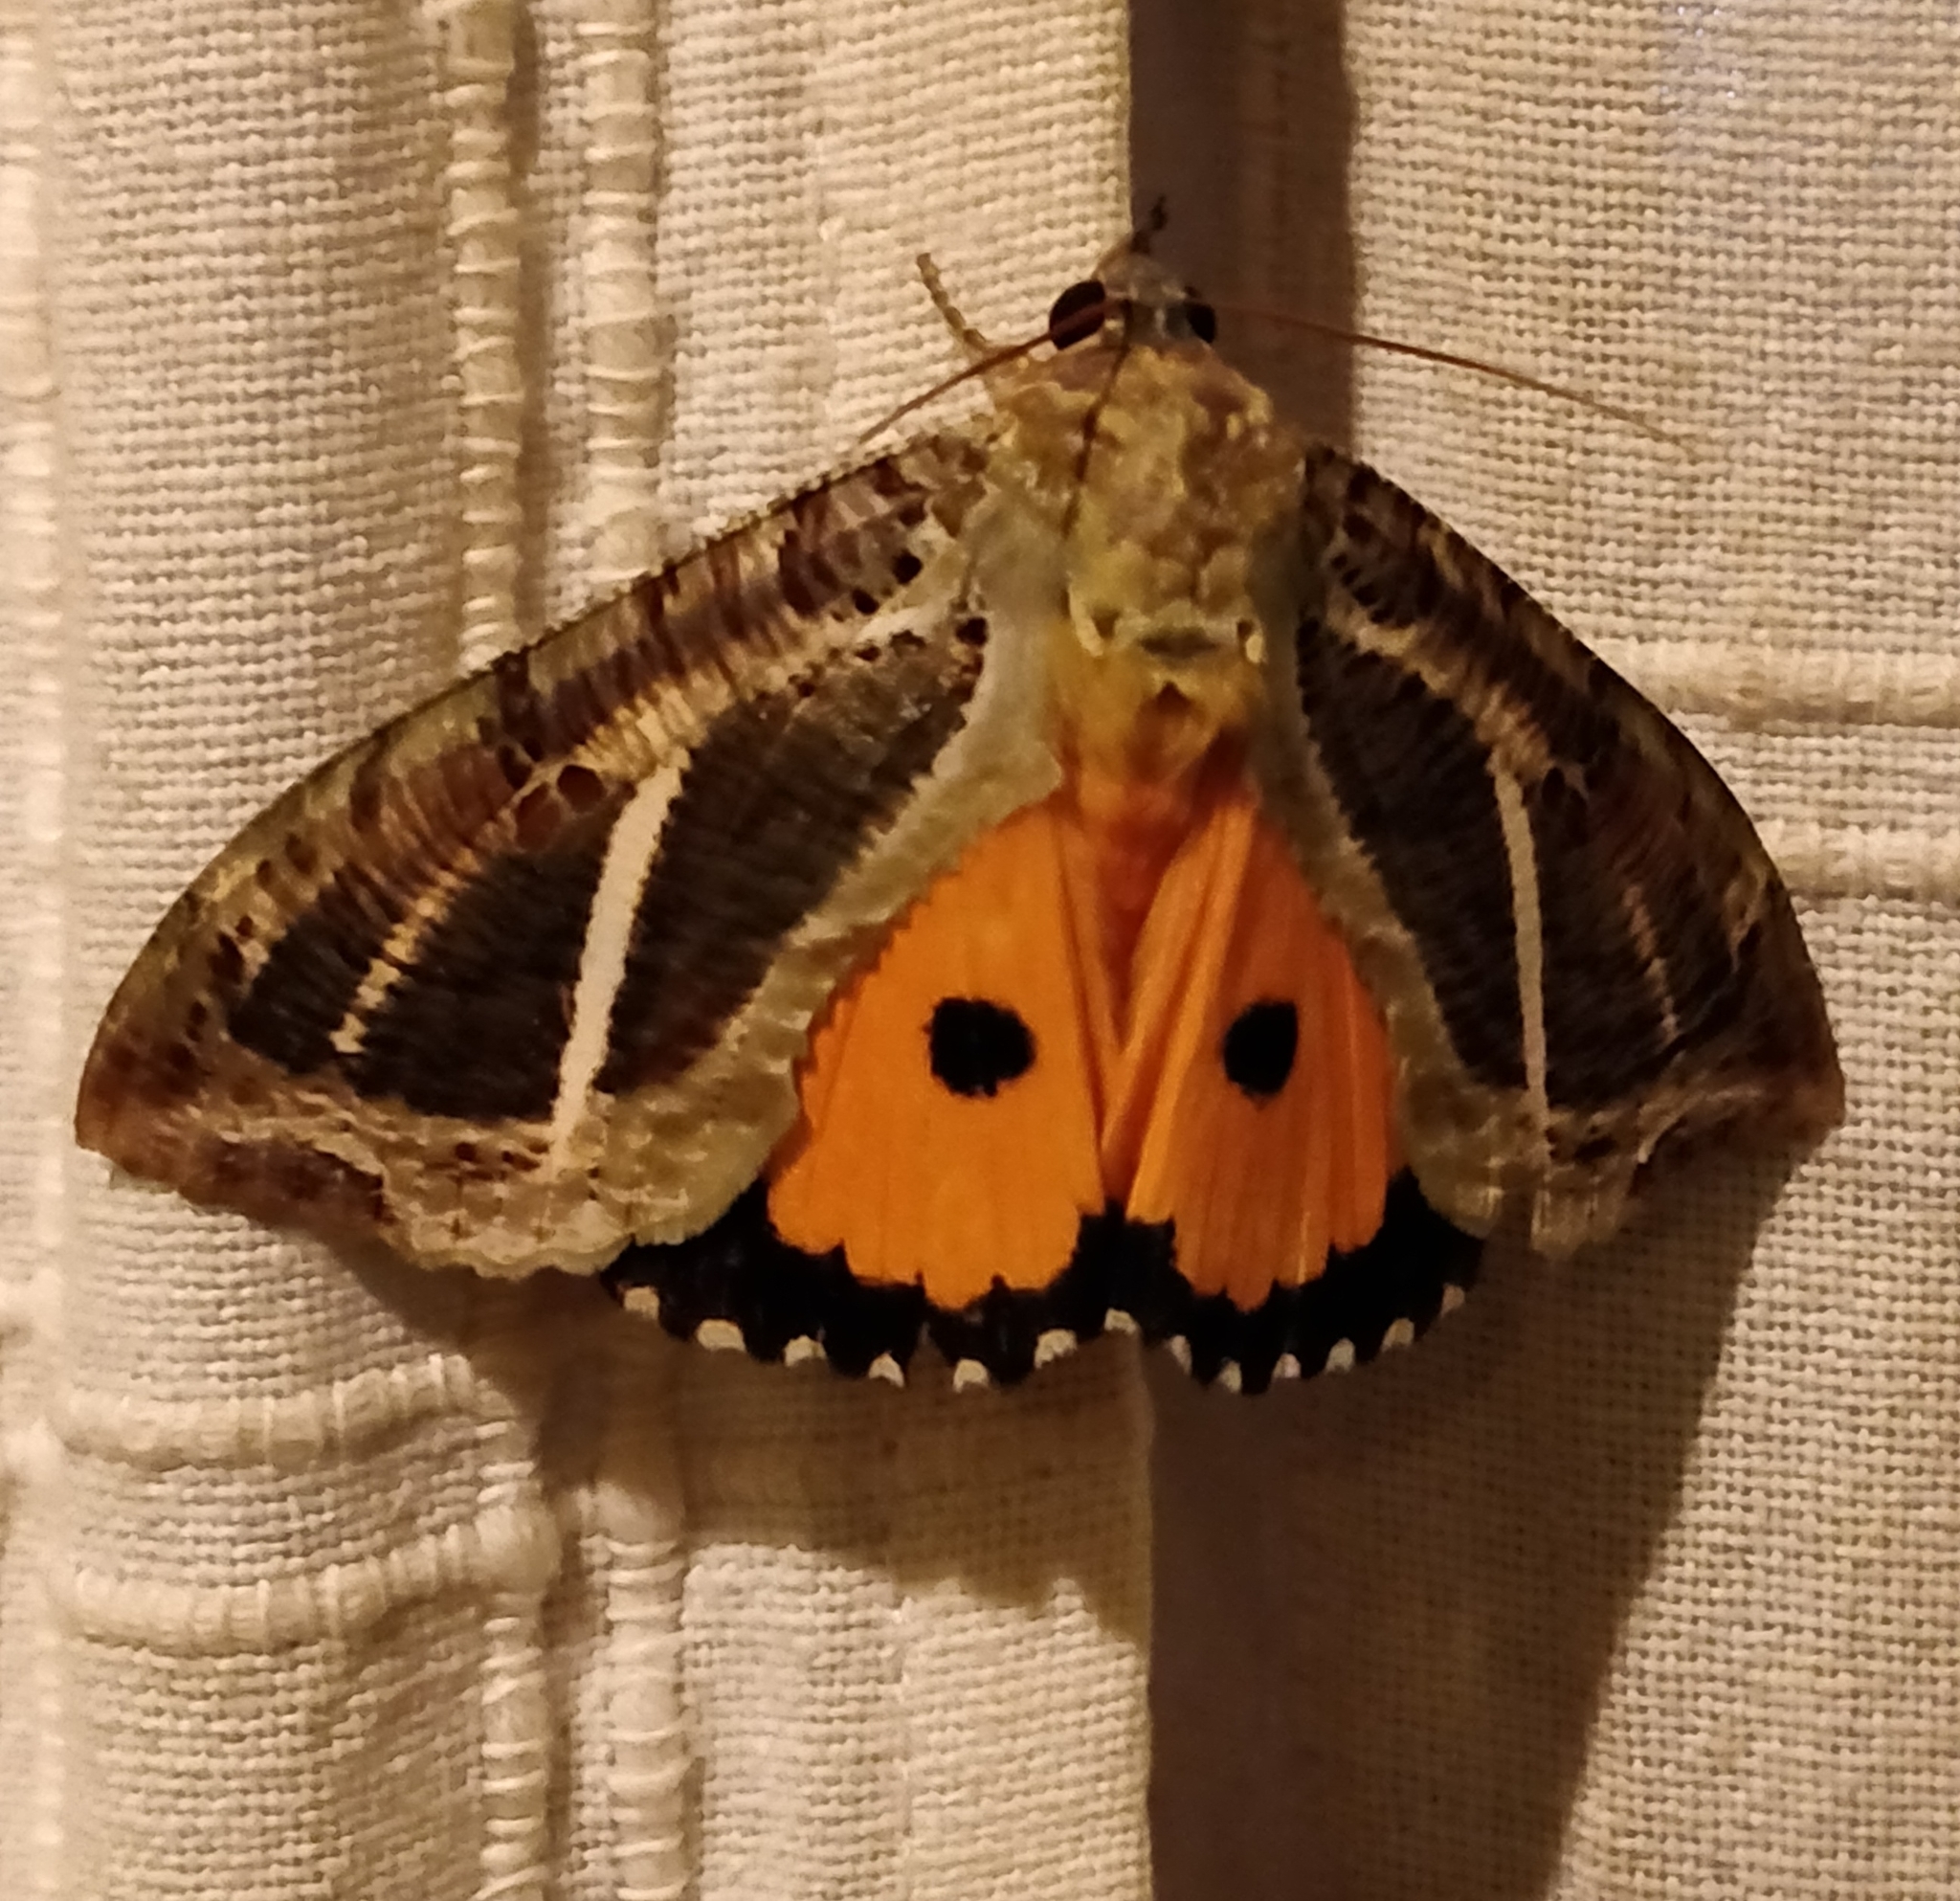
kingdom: Animalia
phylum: Arthropoda
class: Insecta
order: Lepidoptera
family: Erebidae
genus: Eudocima
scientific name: Eudocima materna
